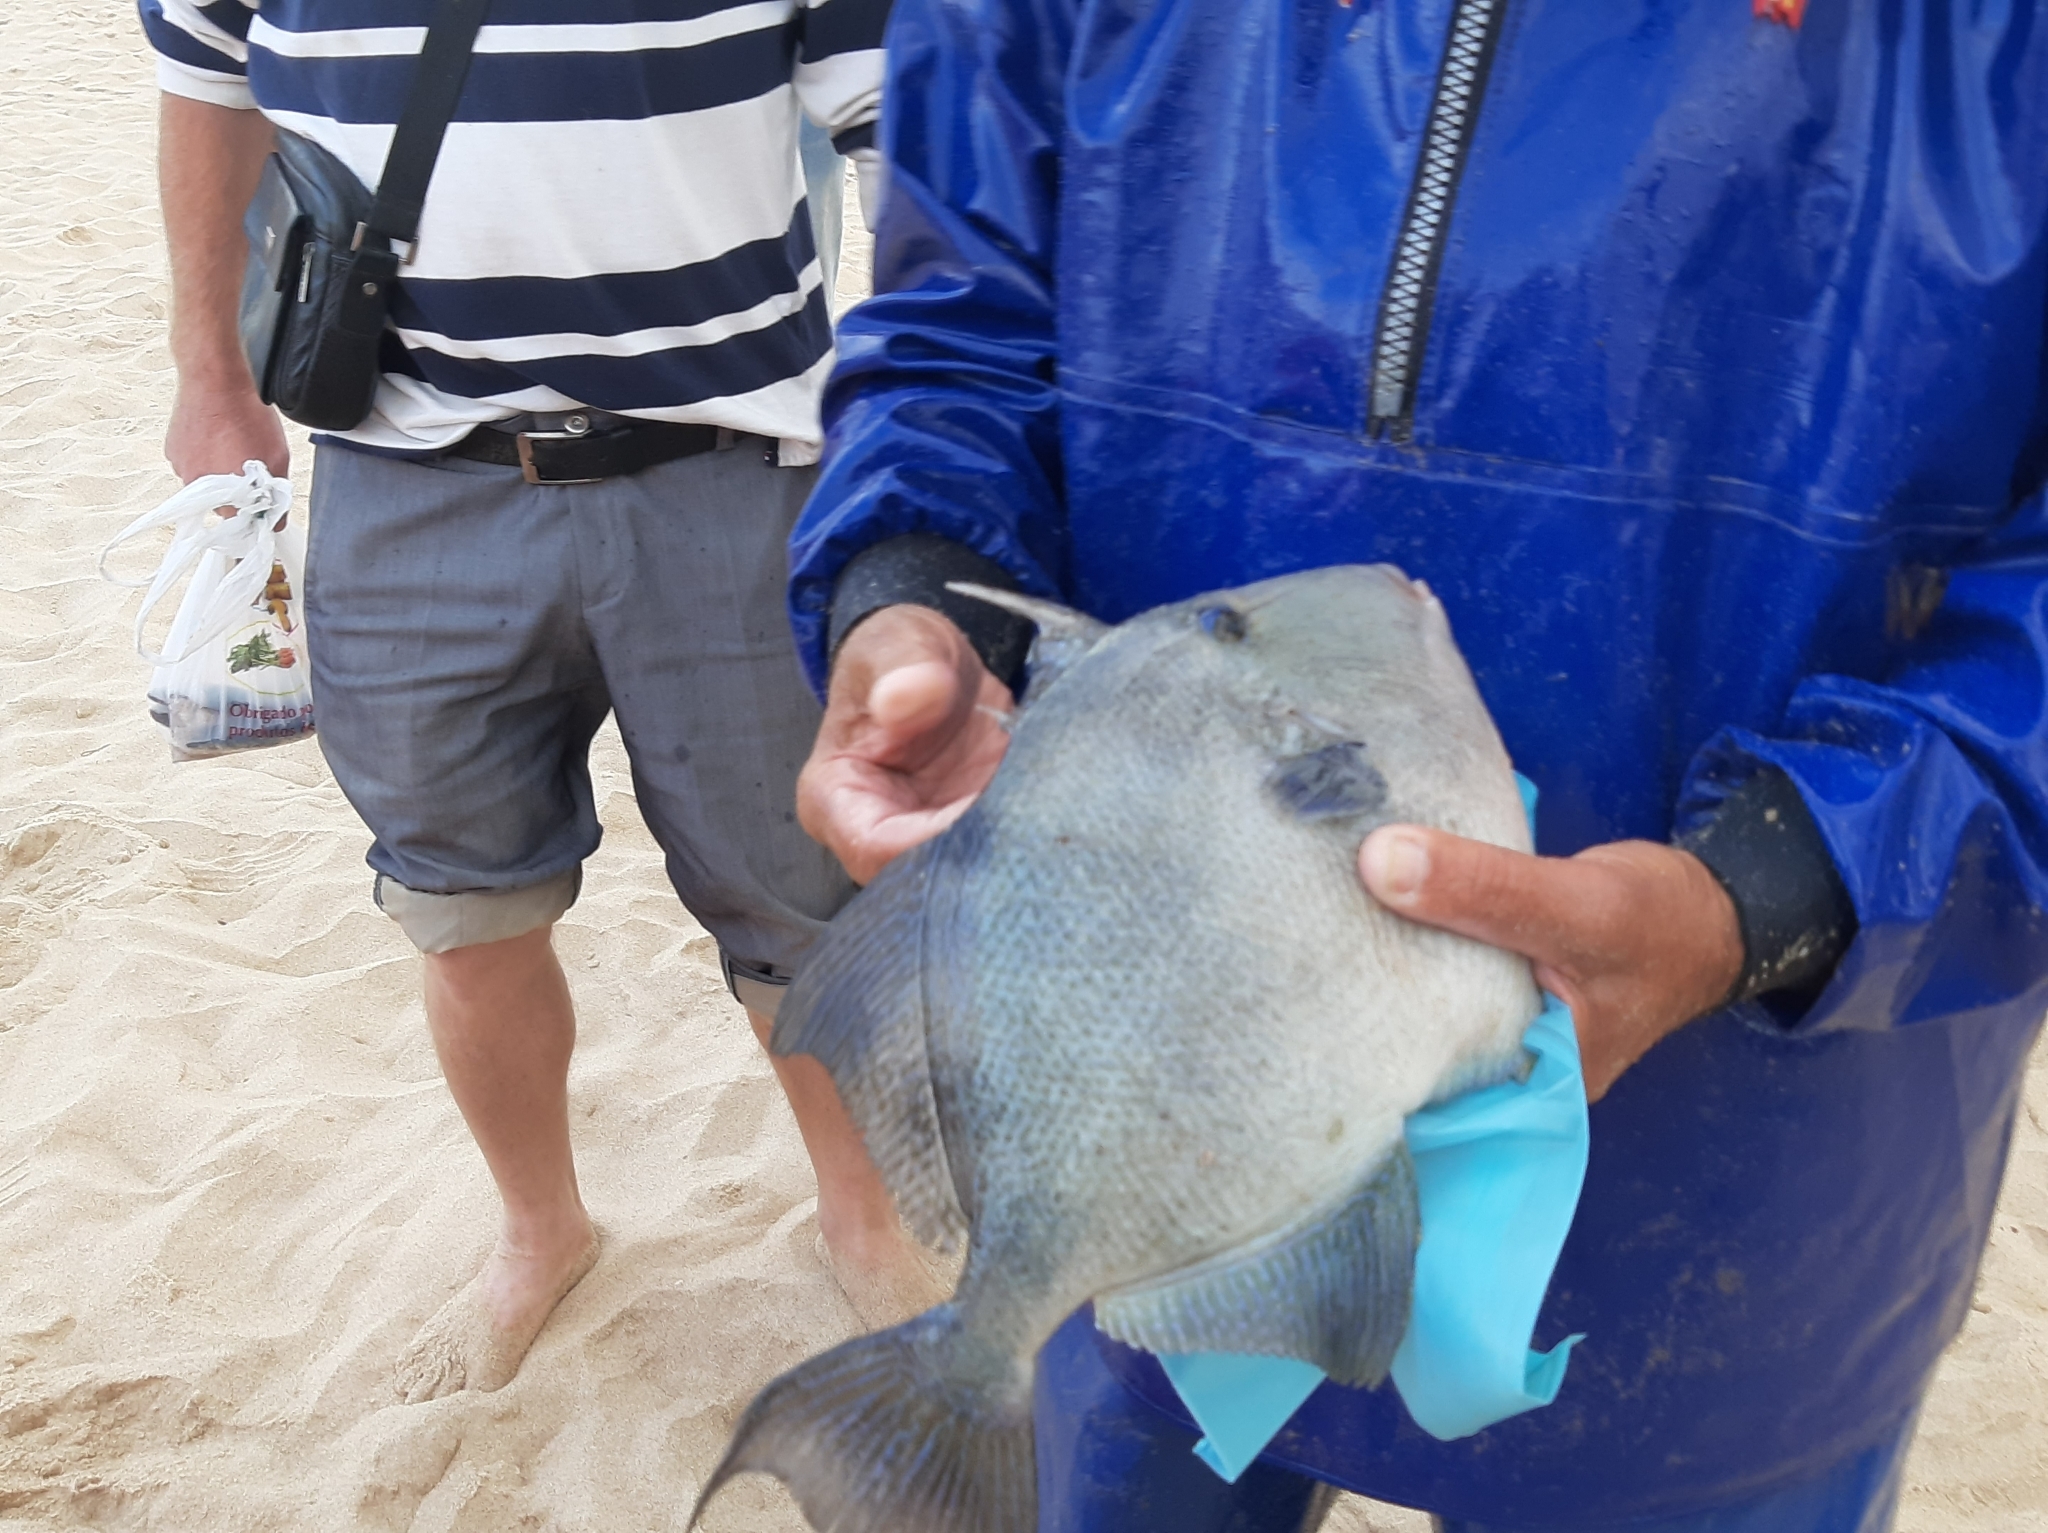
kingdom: Animalia
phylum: Chordata
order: Tetraodontiformes
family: Balistidae
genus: Balistes
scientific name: Balistes capriscus
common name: Grey triggerfish
